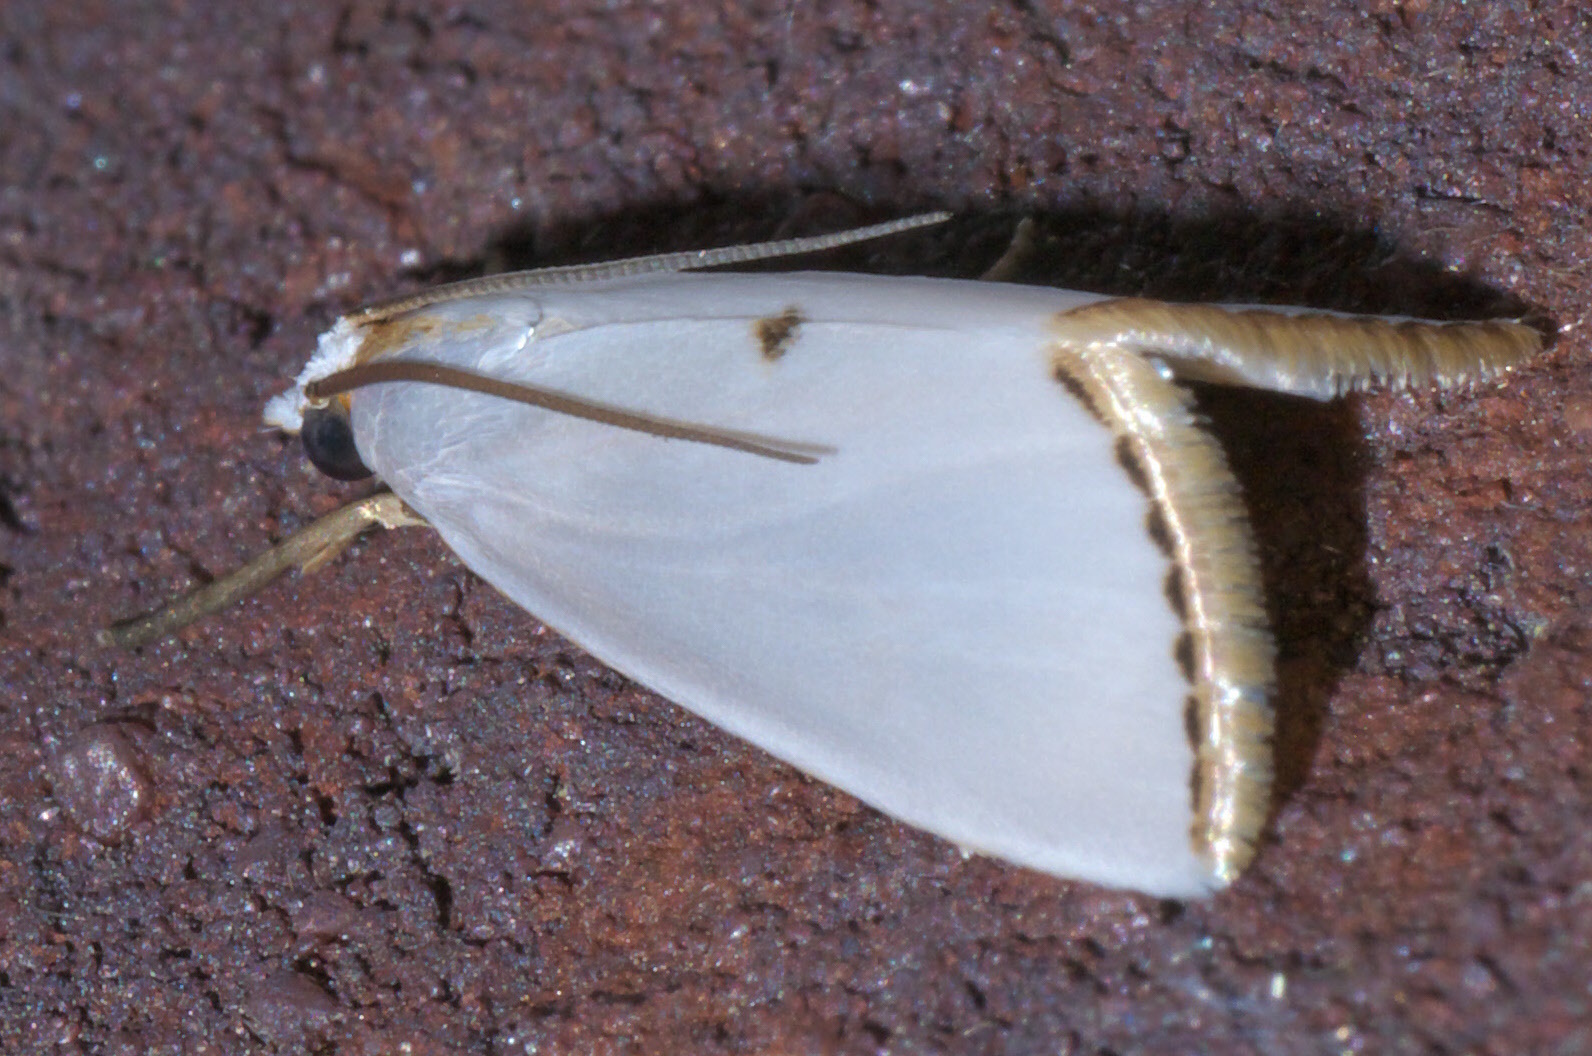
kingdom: Animalia
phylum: Arthropoda
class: Insecta
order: Lepidoptera
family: Crambidae
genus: Argyria
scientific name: Argyria nivalis
